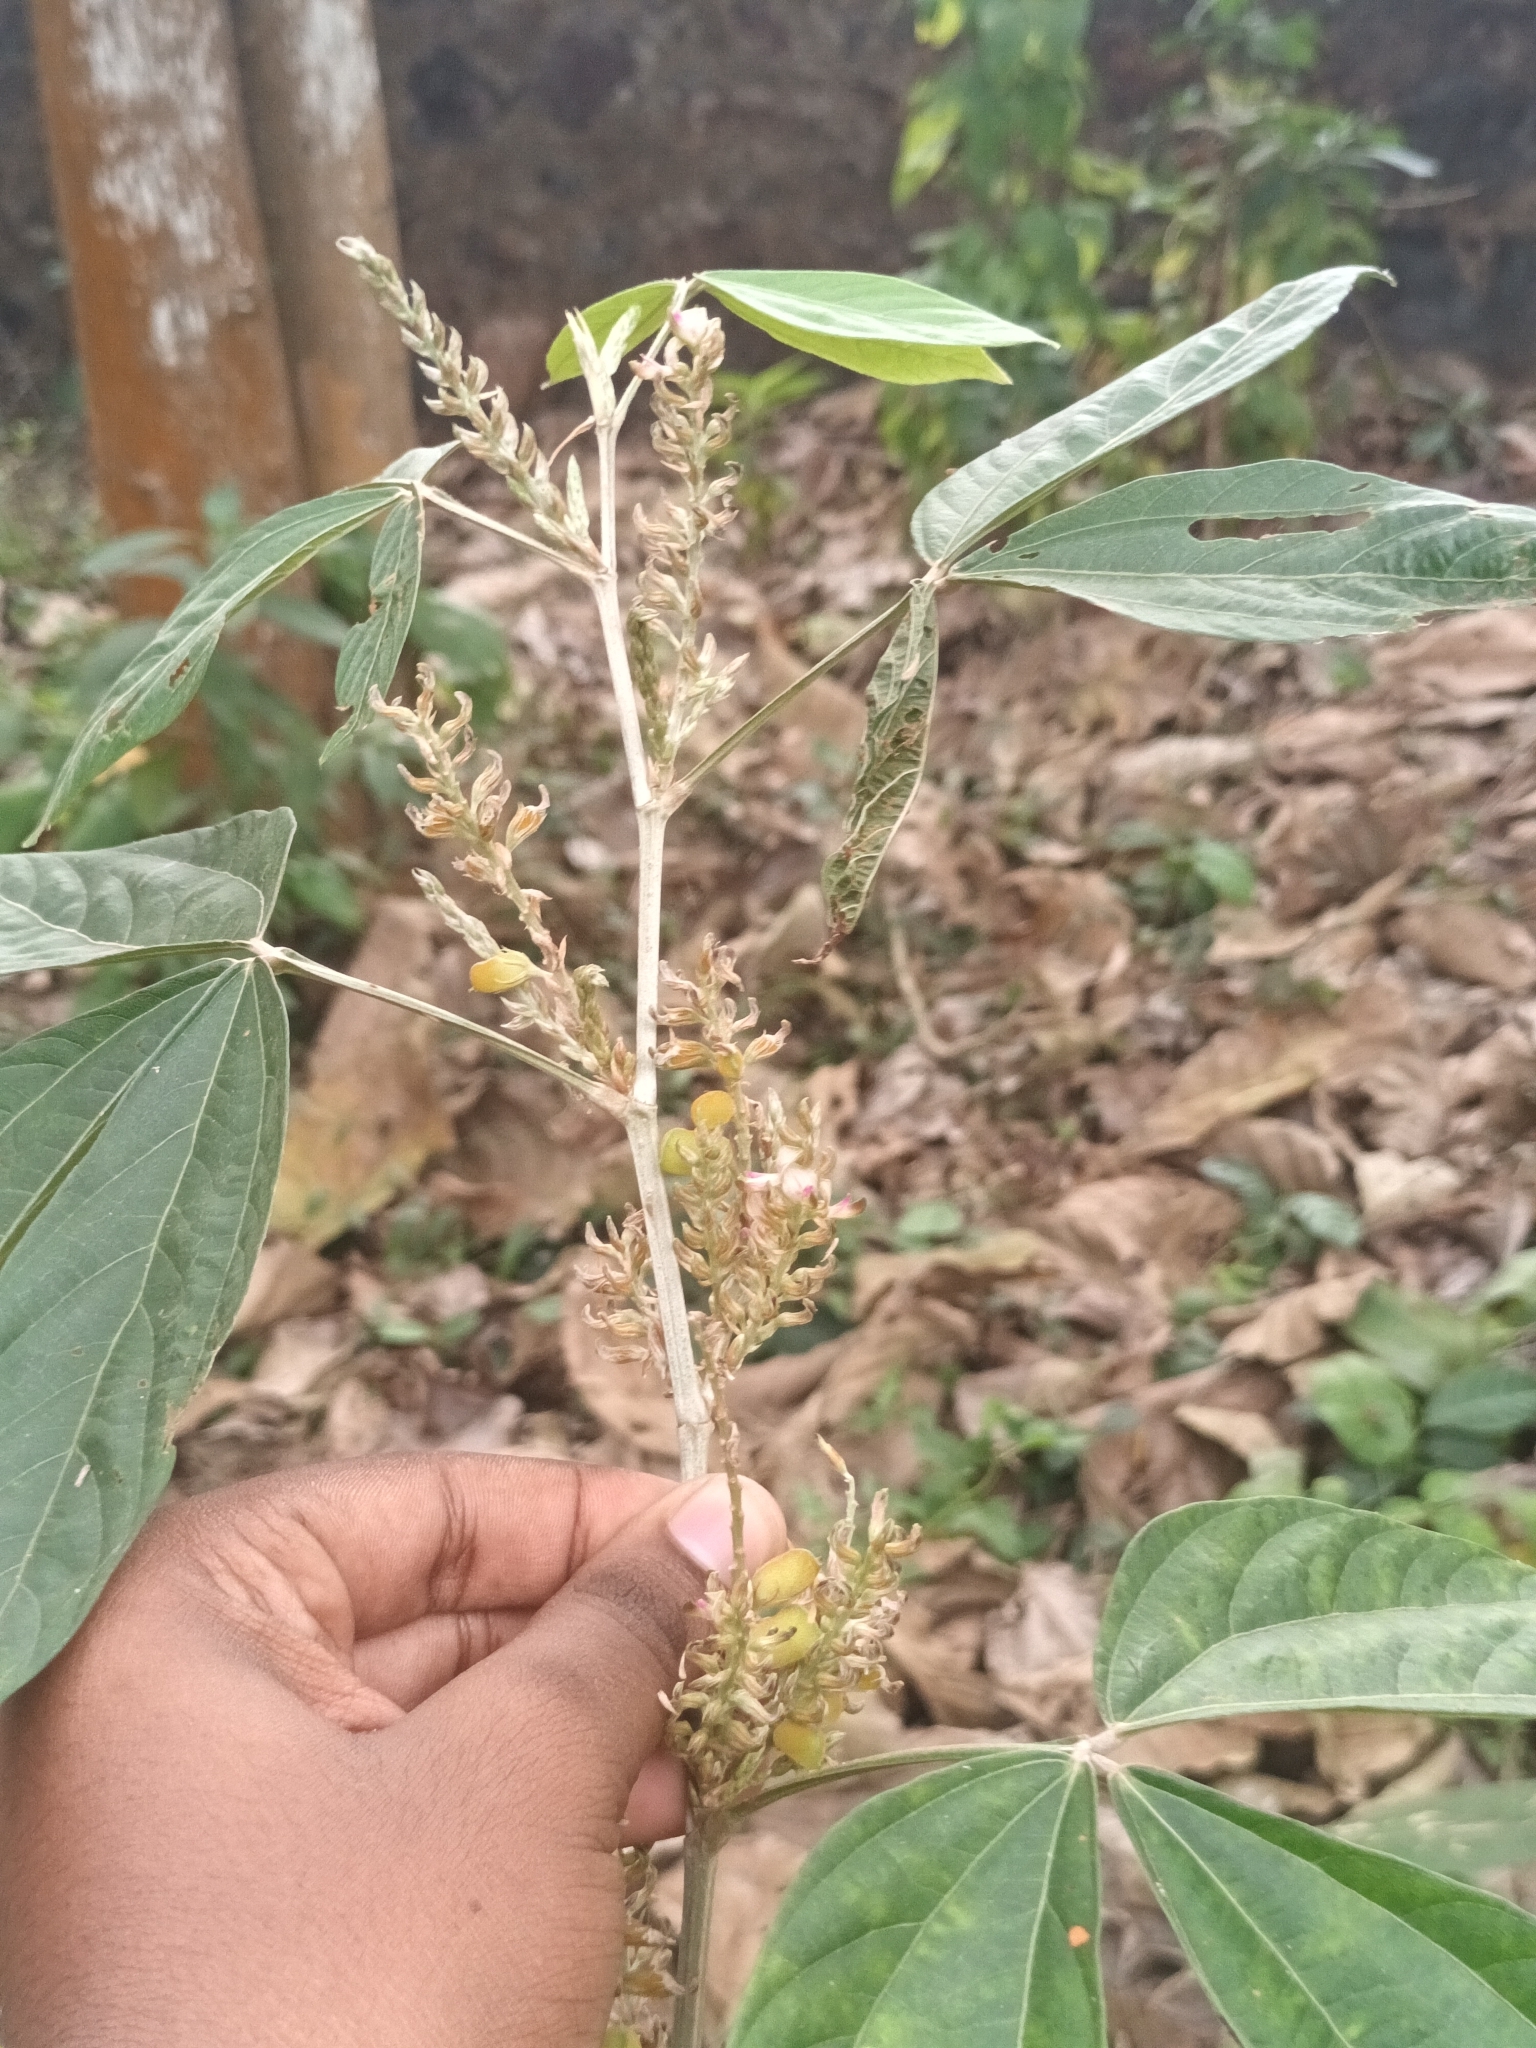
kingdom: Plantae
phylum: Tracheophyta
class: Magnoliopsida
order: Fabales
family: Fabaceae
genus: Flemingia
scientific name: Flemingia semialata
